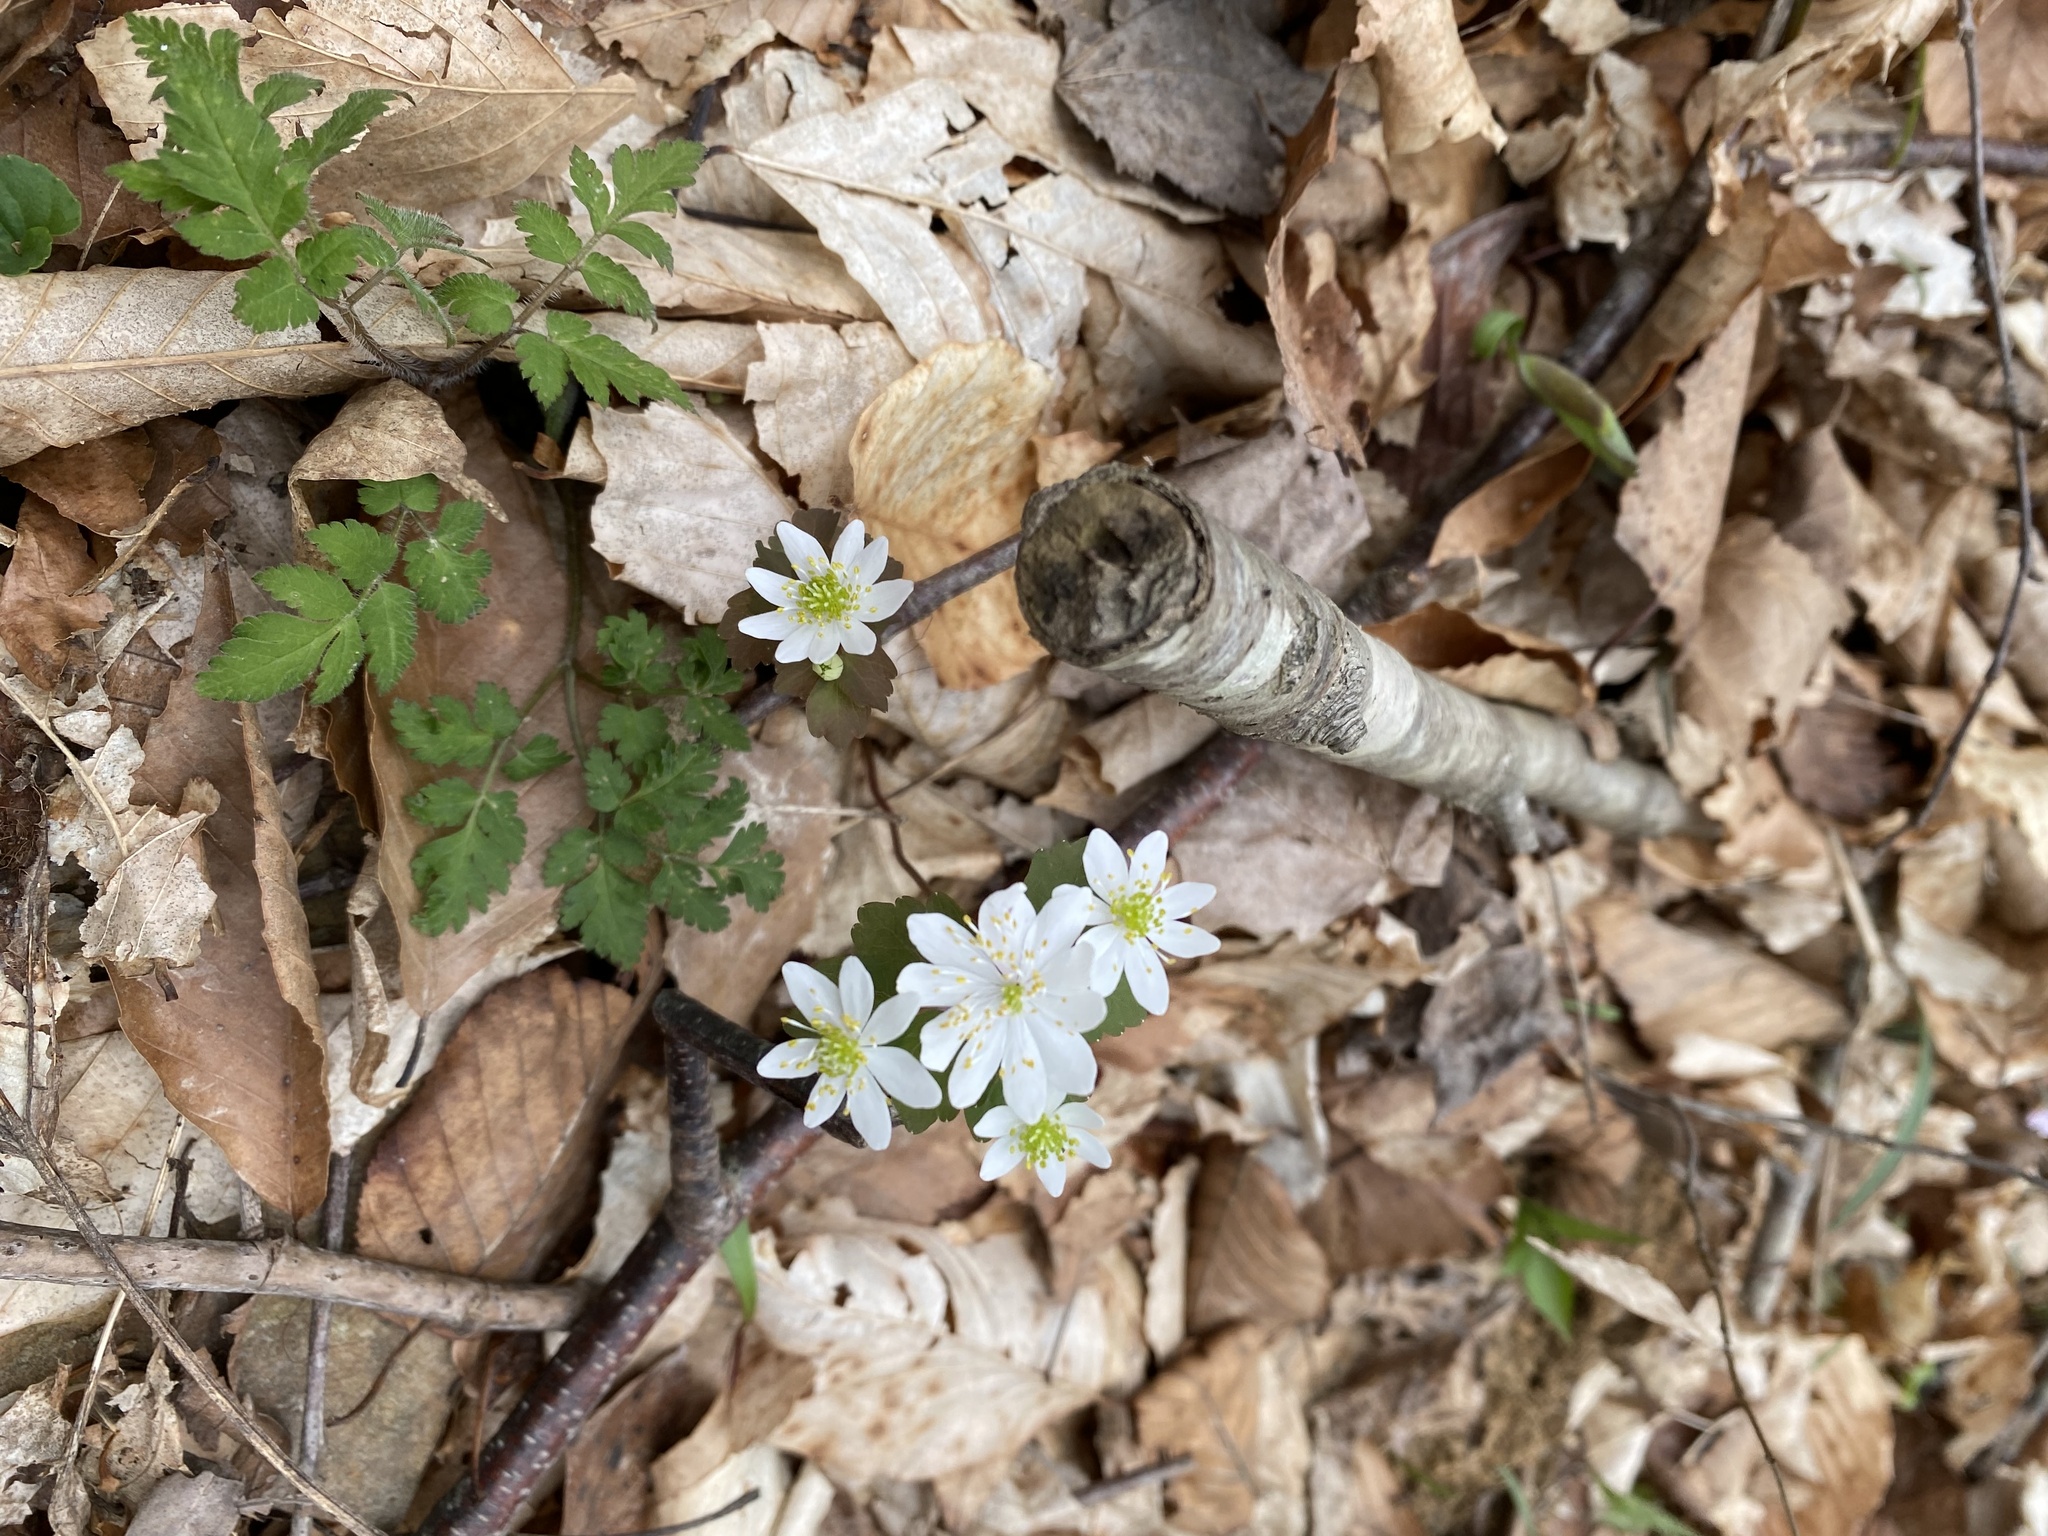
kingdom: Plantae
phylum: Tracheophyta
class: Magnoliopsida
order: Ranunculales
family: Ranunculaceae
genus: Thalictrum
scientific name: Thalictrum thalictroides
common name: Rue-anemone
